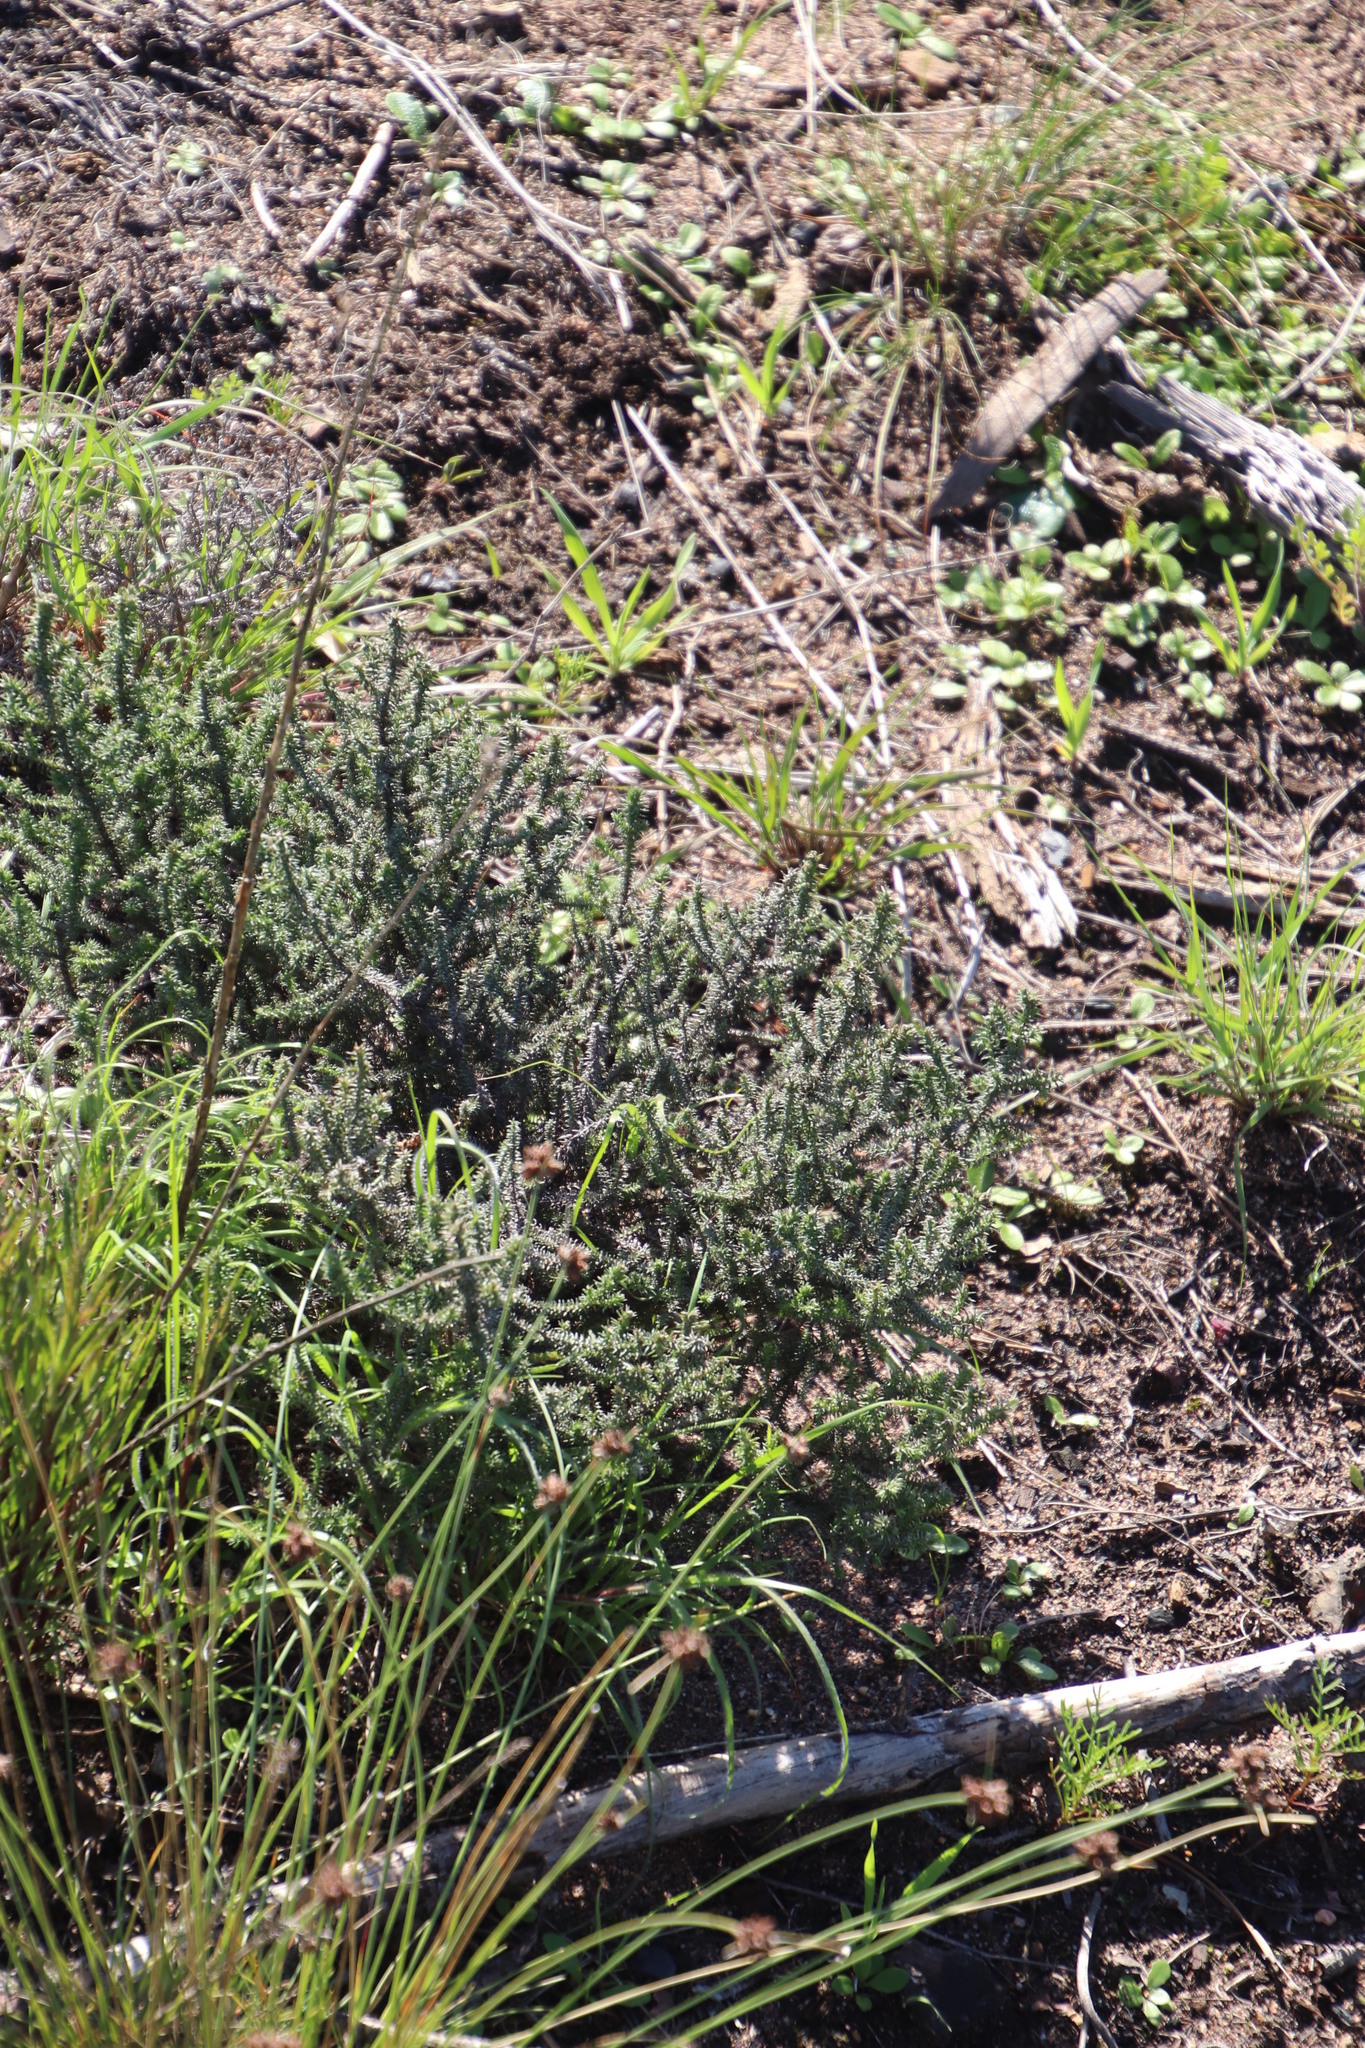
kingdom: Plantae
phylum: Tracheophyta
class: Magnoliopsida
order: Asterales
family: Asteraceae
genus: Seriphium
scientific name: Seriphium cinereum
